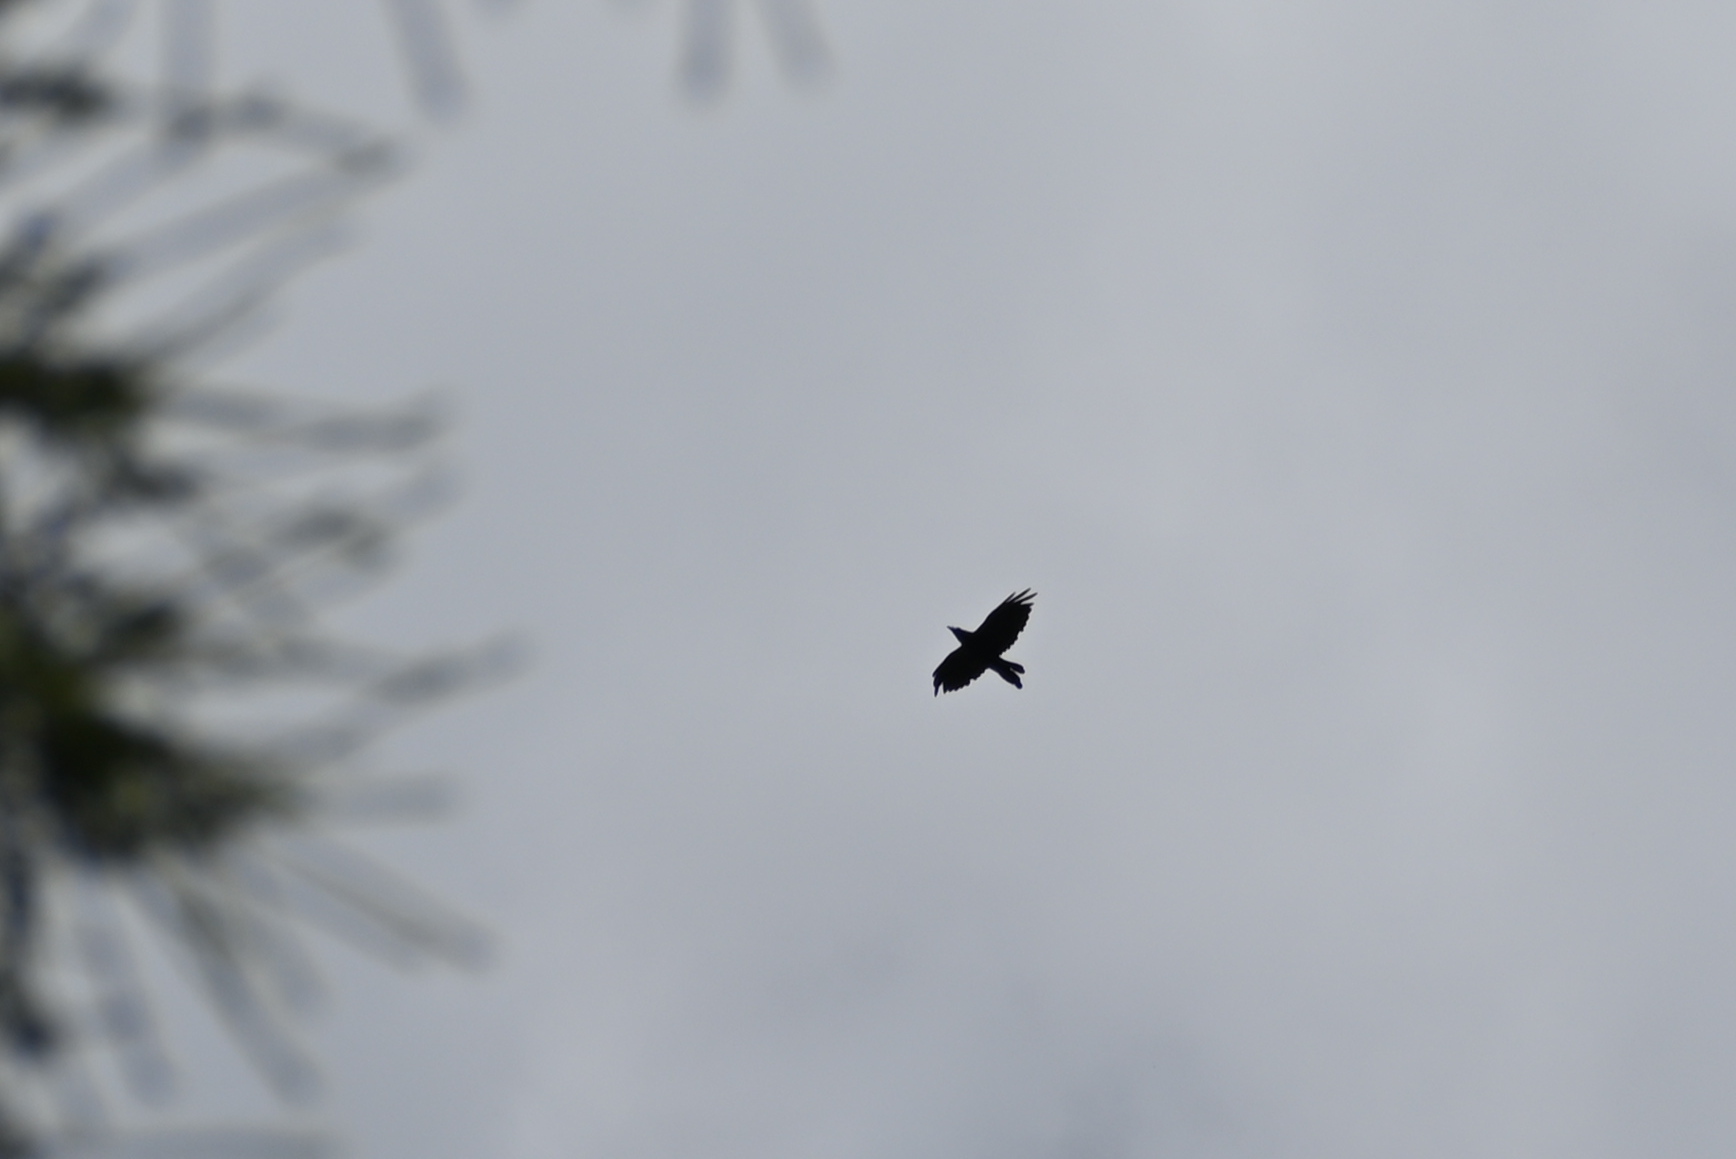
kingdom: Animalia
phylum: Chordata
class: Aves
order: Passeriformes
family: Corvidae
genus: Corvus
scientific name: Corvus corax
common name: Common raven
